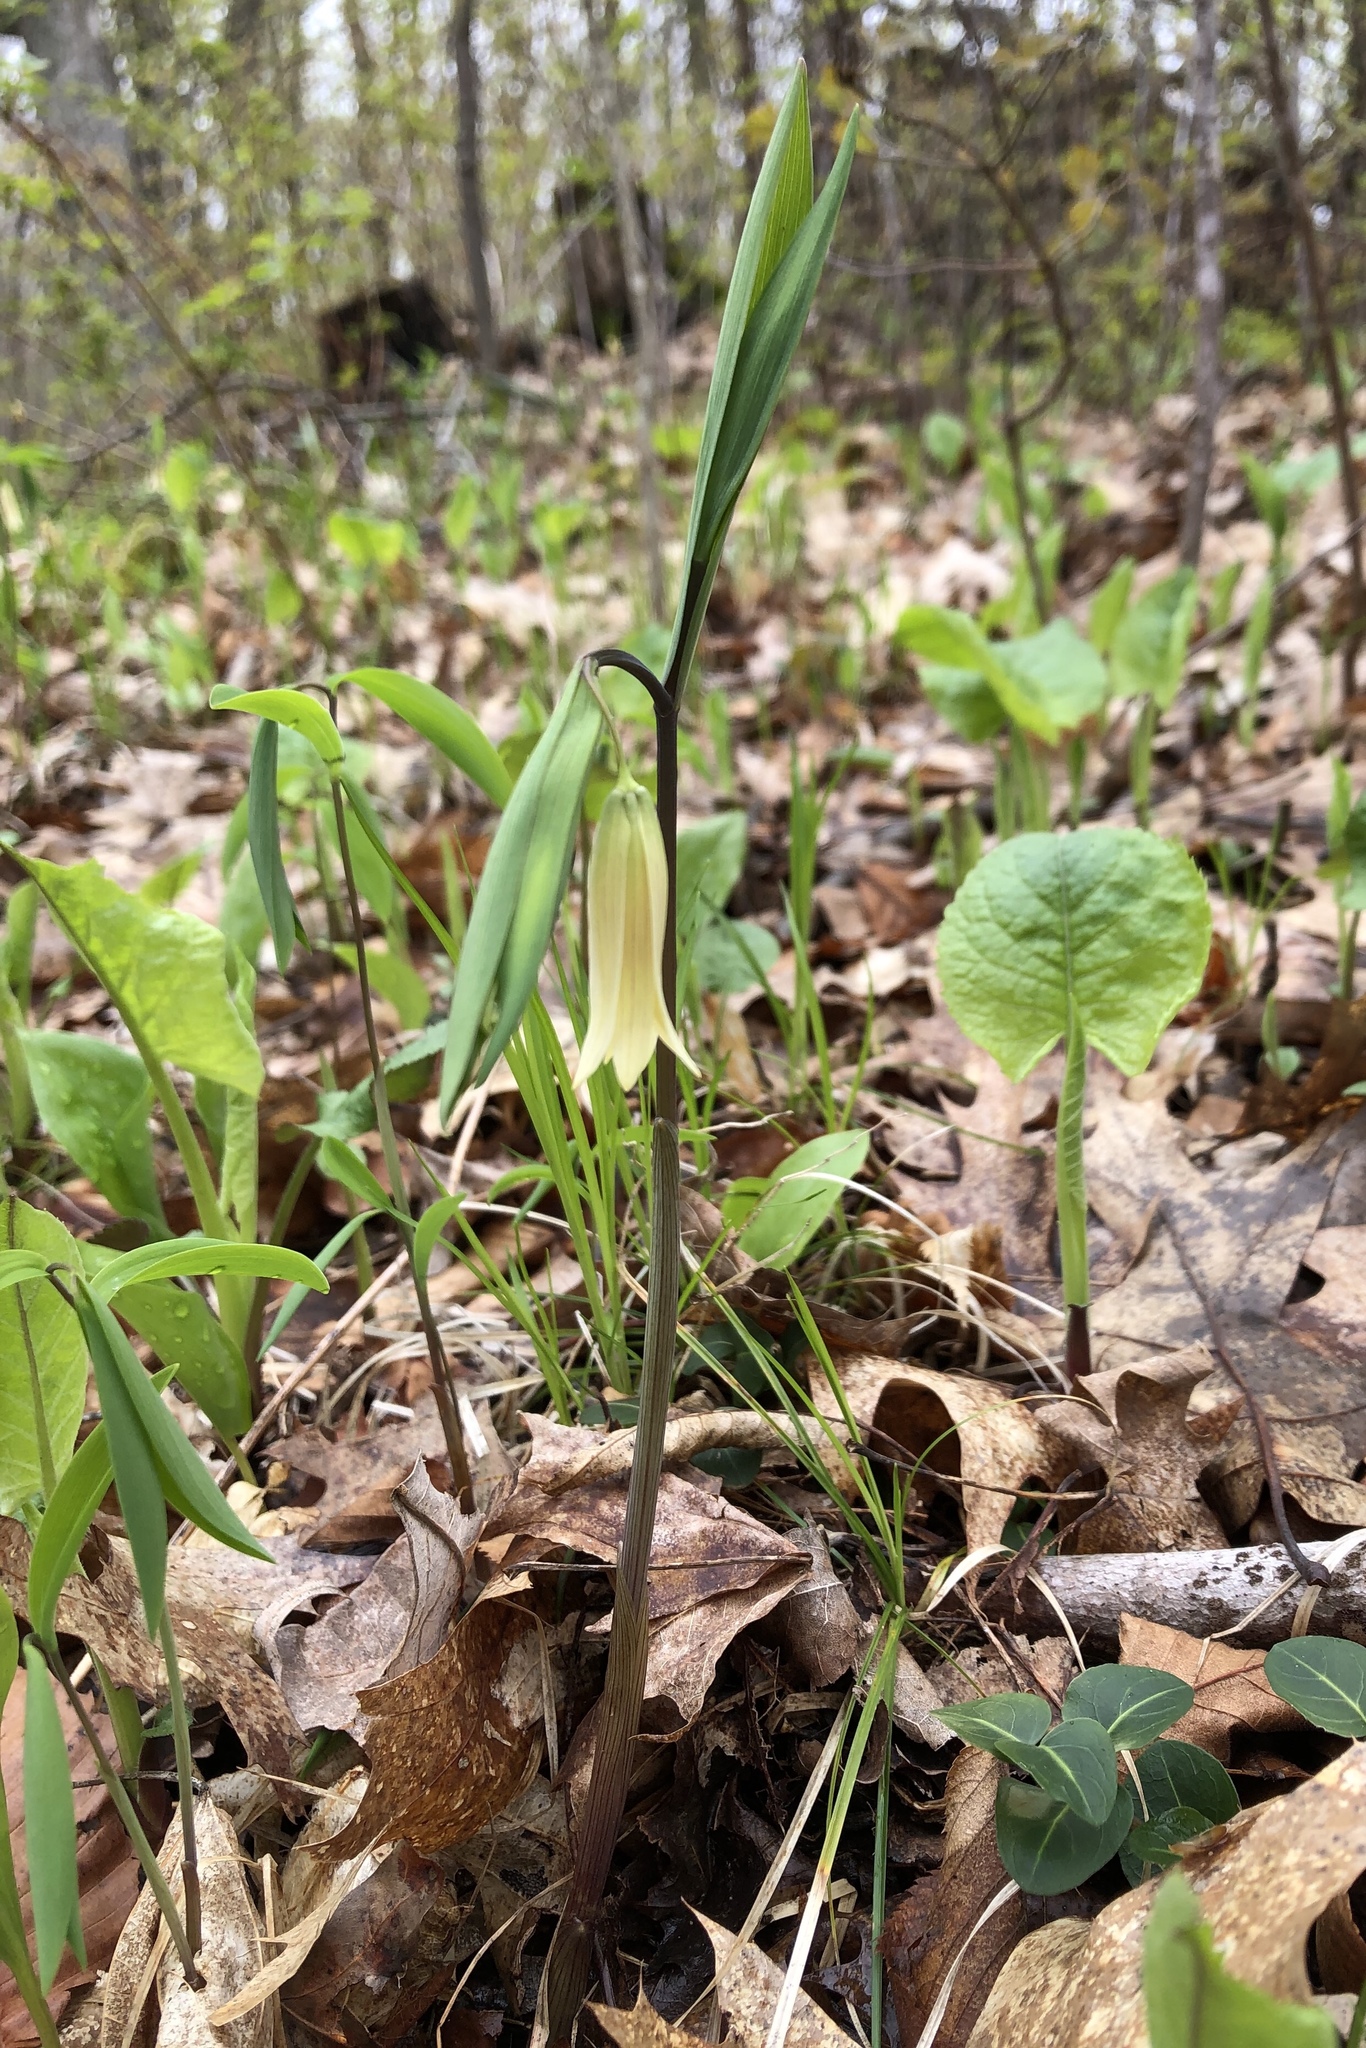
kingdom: Plantae
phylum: Tracheophyta
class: Liliopsida
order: Liliales
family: Colchicaceae
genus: Uvularia
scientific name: Uvularia sessilifolia
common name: Straw-lily
